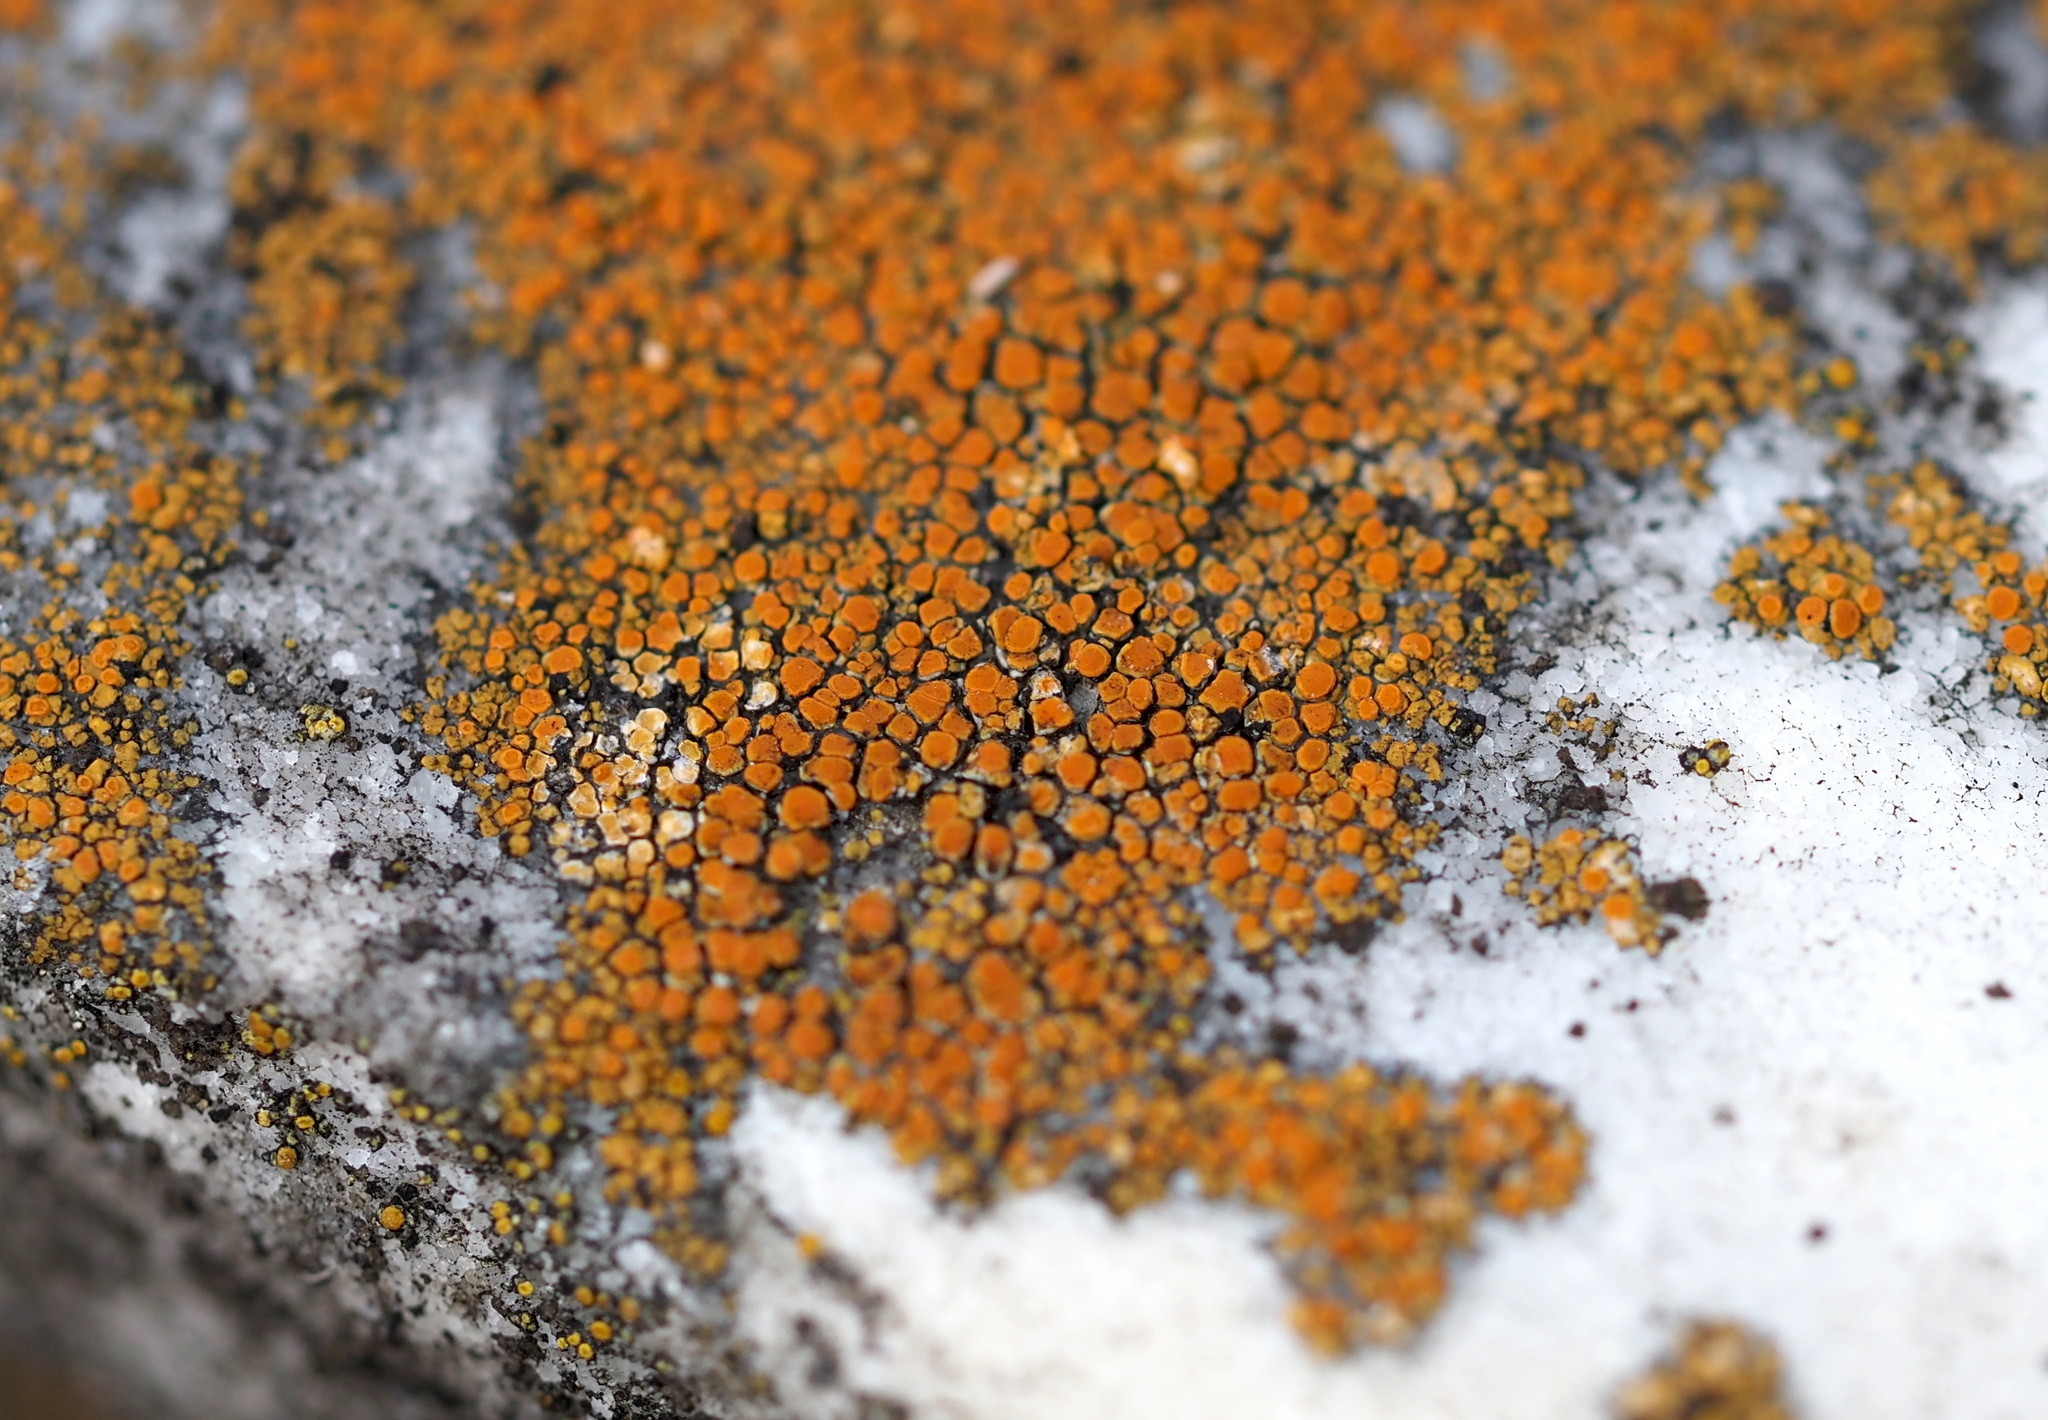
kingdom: Fungi
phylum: Ascomycota
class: Lecanoromycetes
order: Teloschistales
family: Teloschistaceae
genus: Xanthocarpia
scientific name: Xanthocarpia feracissima
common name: Sidewalk firedot
